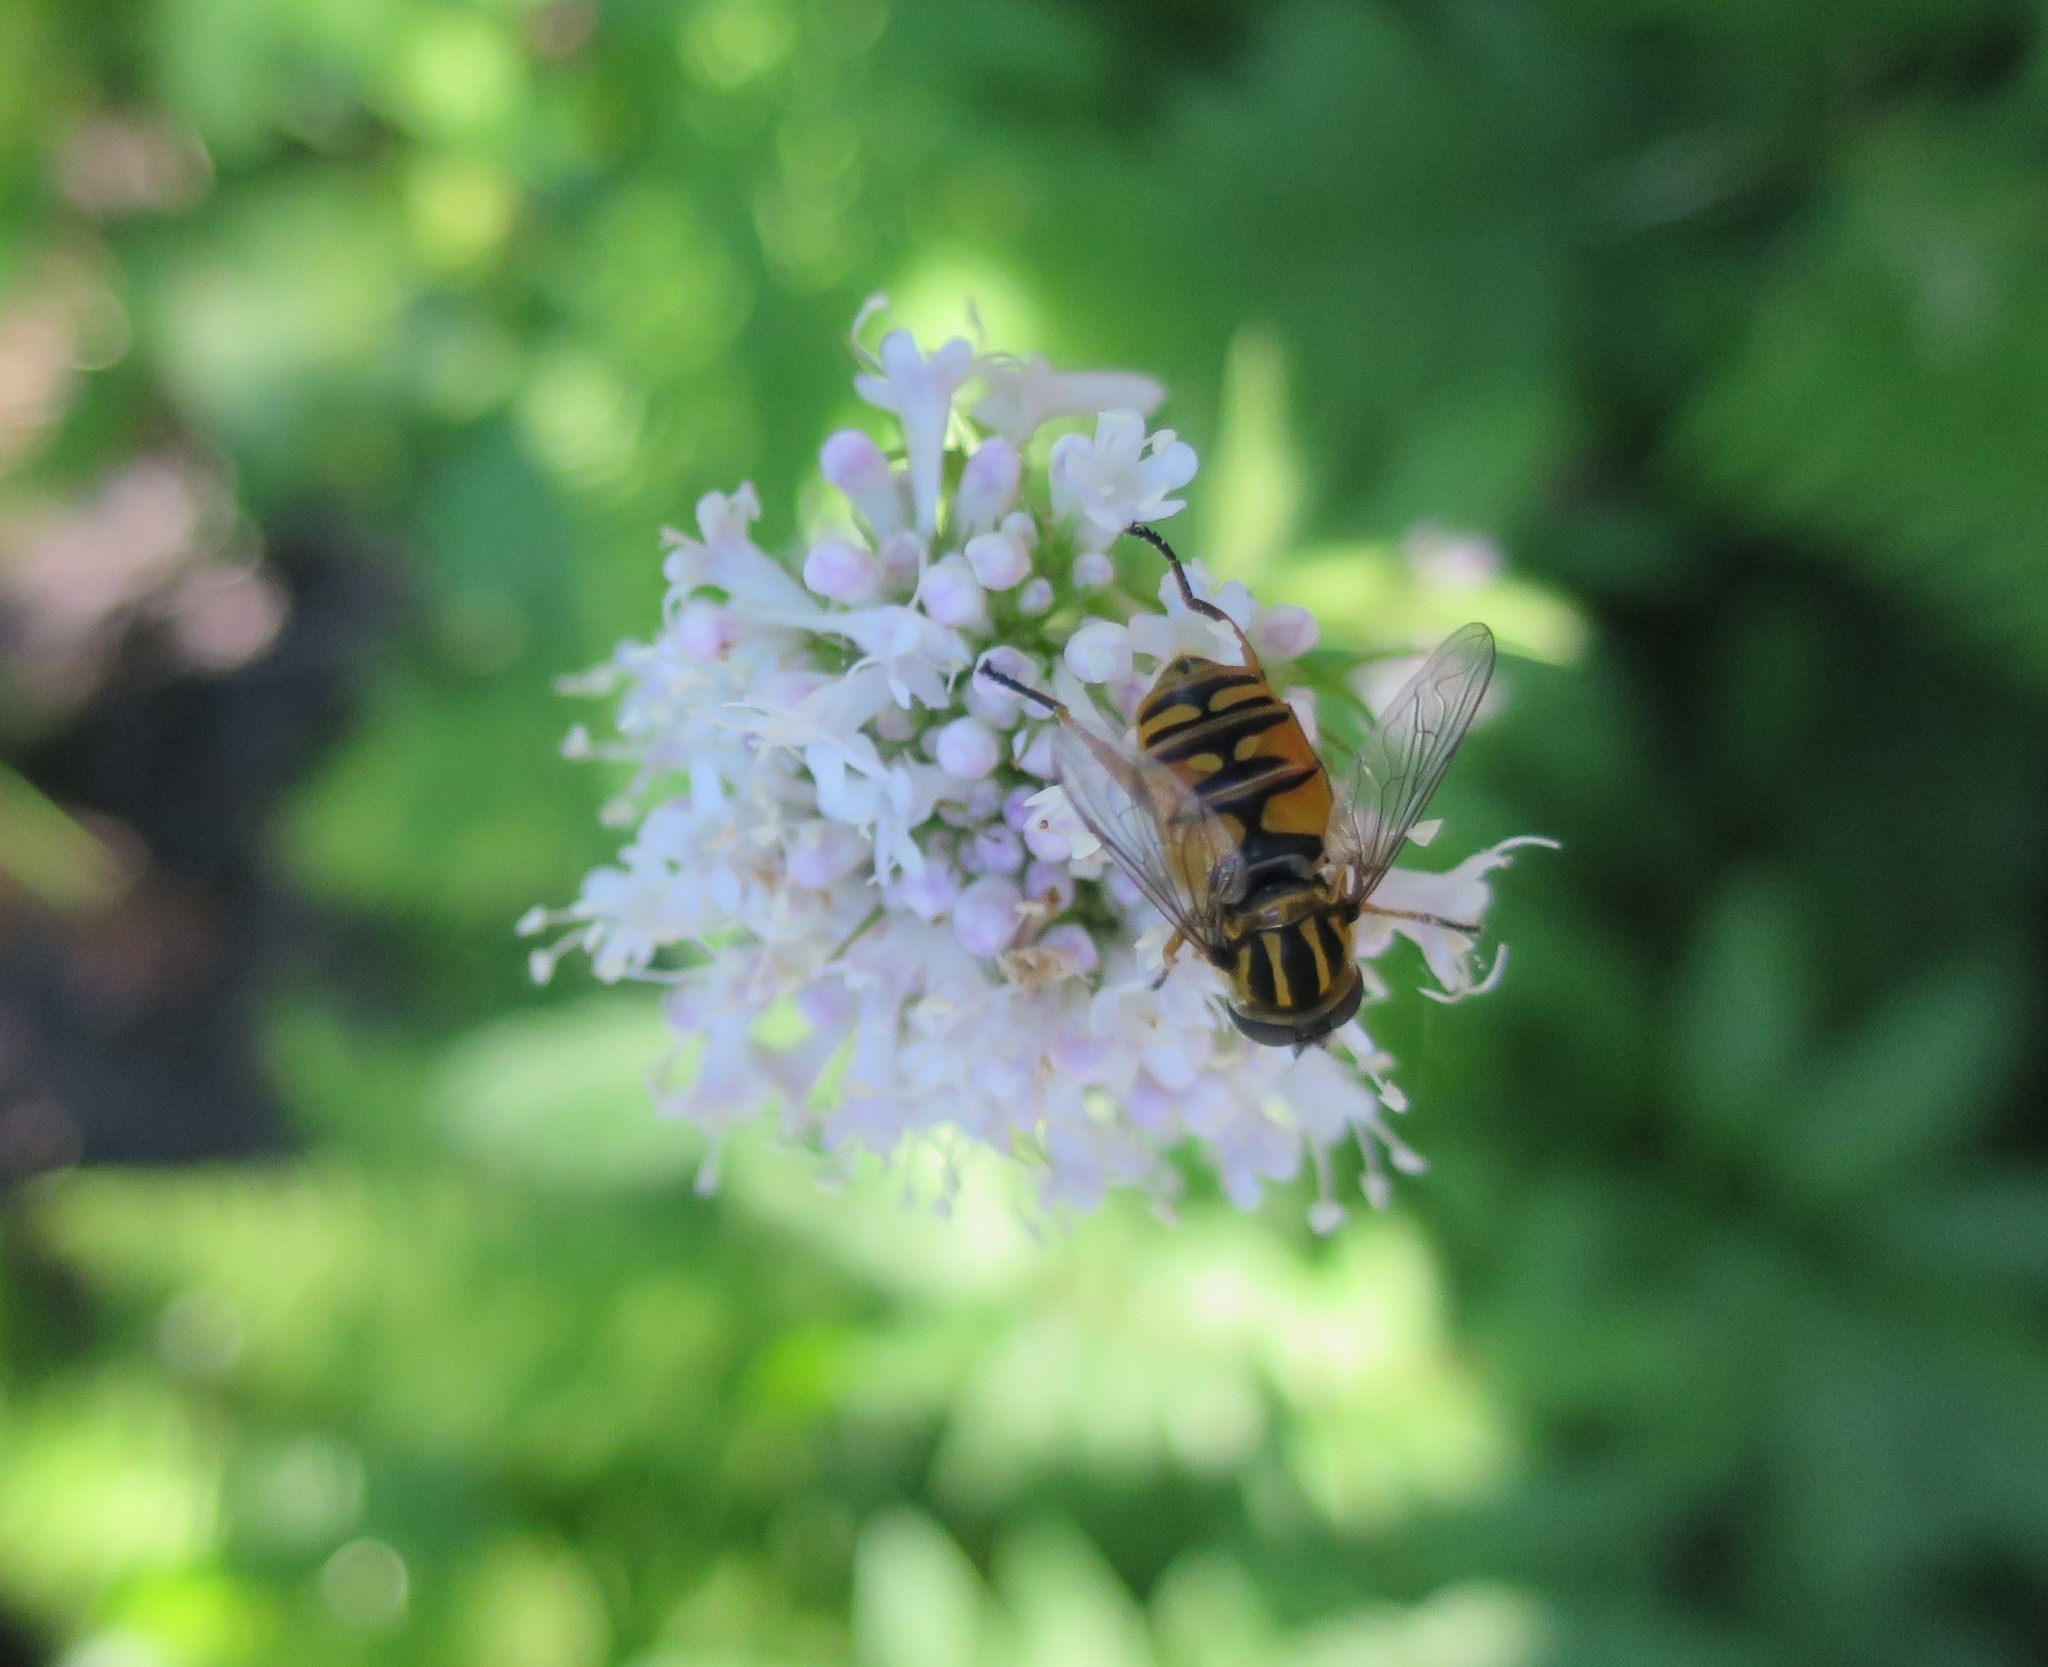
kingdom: Animalia
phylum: Arthropoda
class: Insecta
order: Diptera
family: Syrphidae
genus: Helophilus
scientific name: Helophilus pendulus
